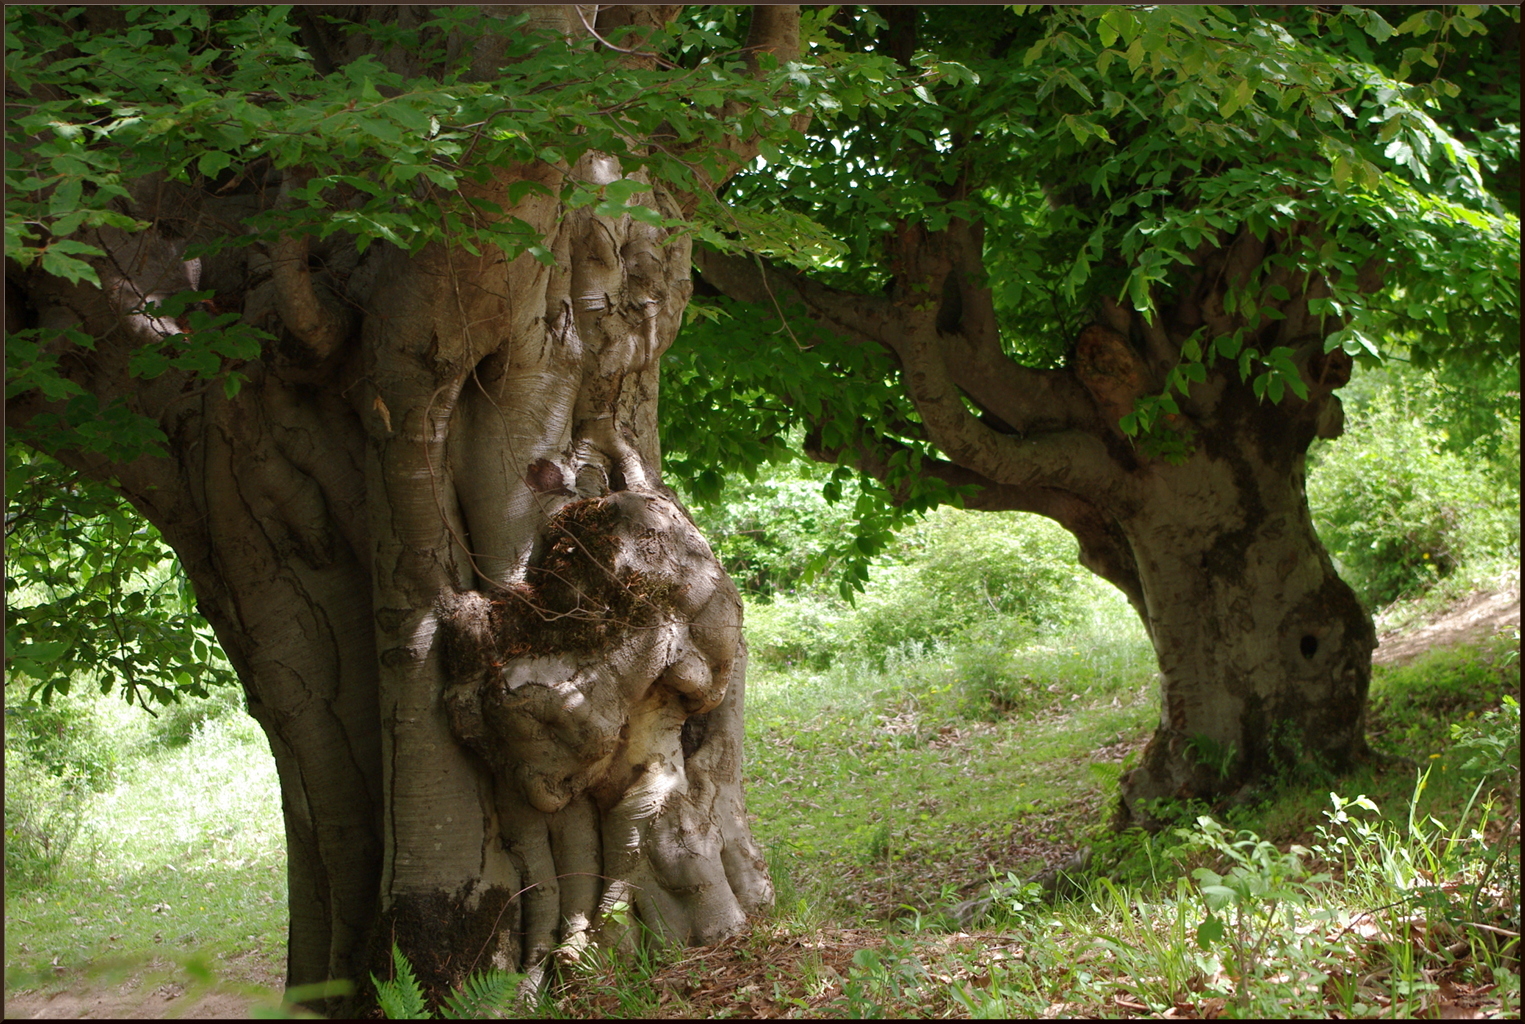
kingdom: Plantae
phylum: Tracheophyta
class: Magnoliopsida
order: Fagales
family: Fagaceae
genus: Fagus
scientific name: Fagus orientalis
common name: Oriental beech
